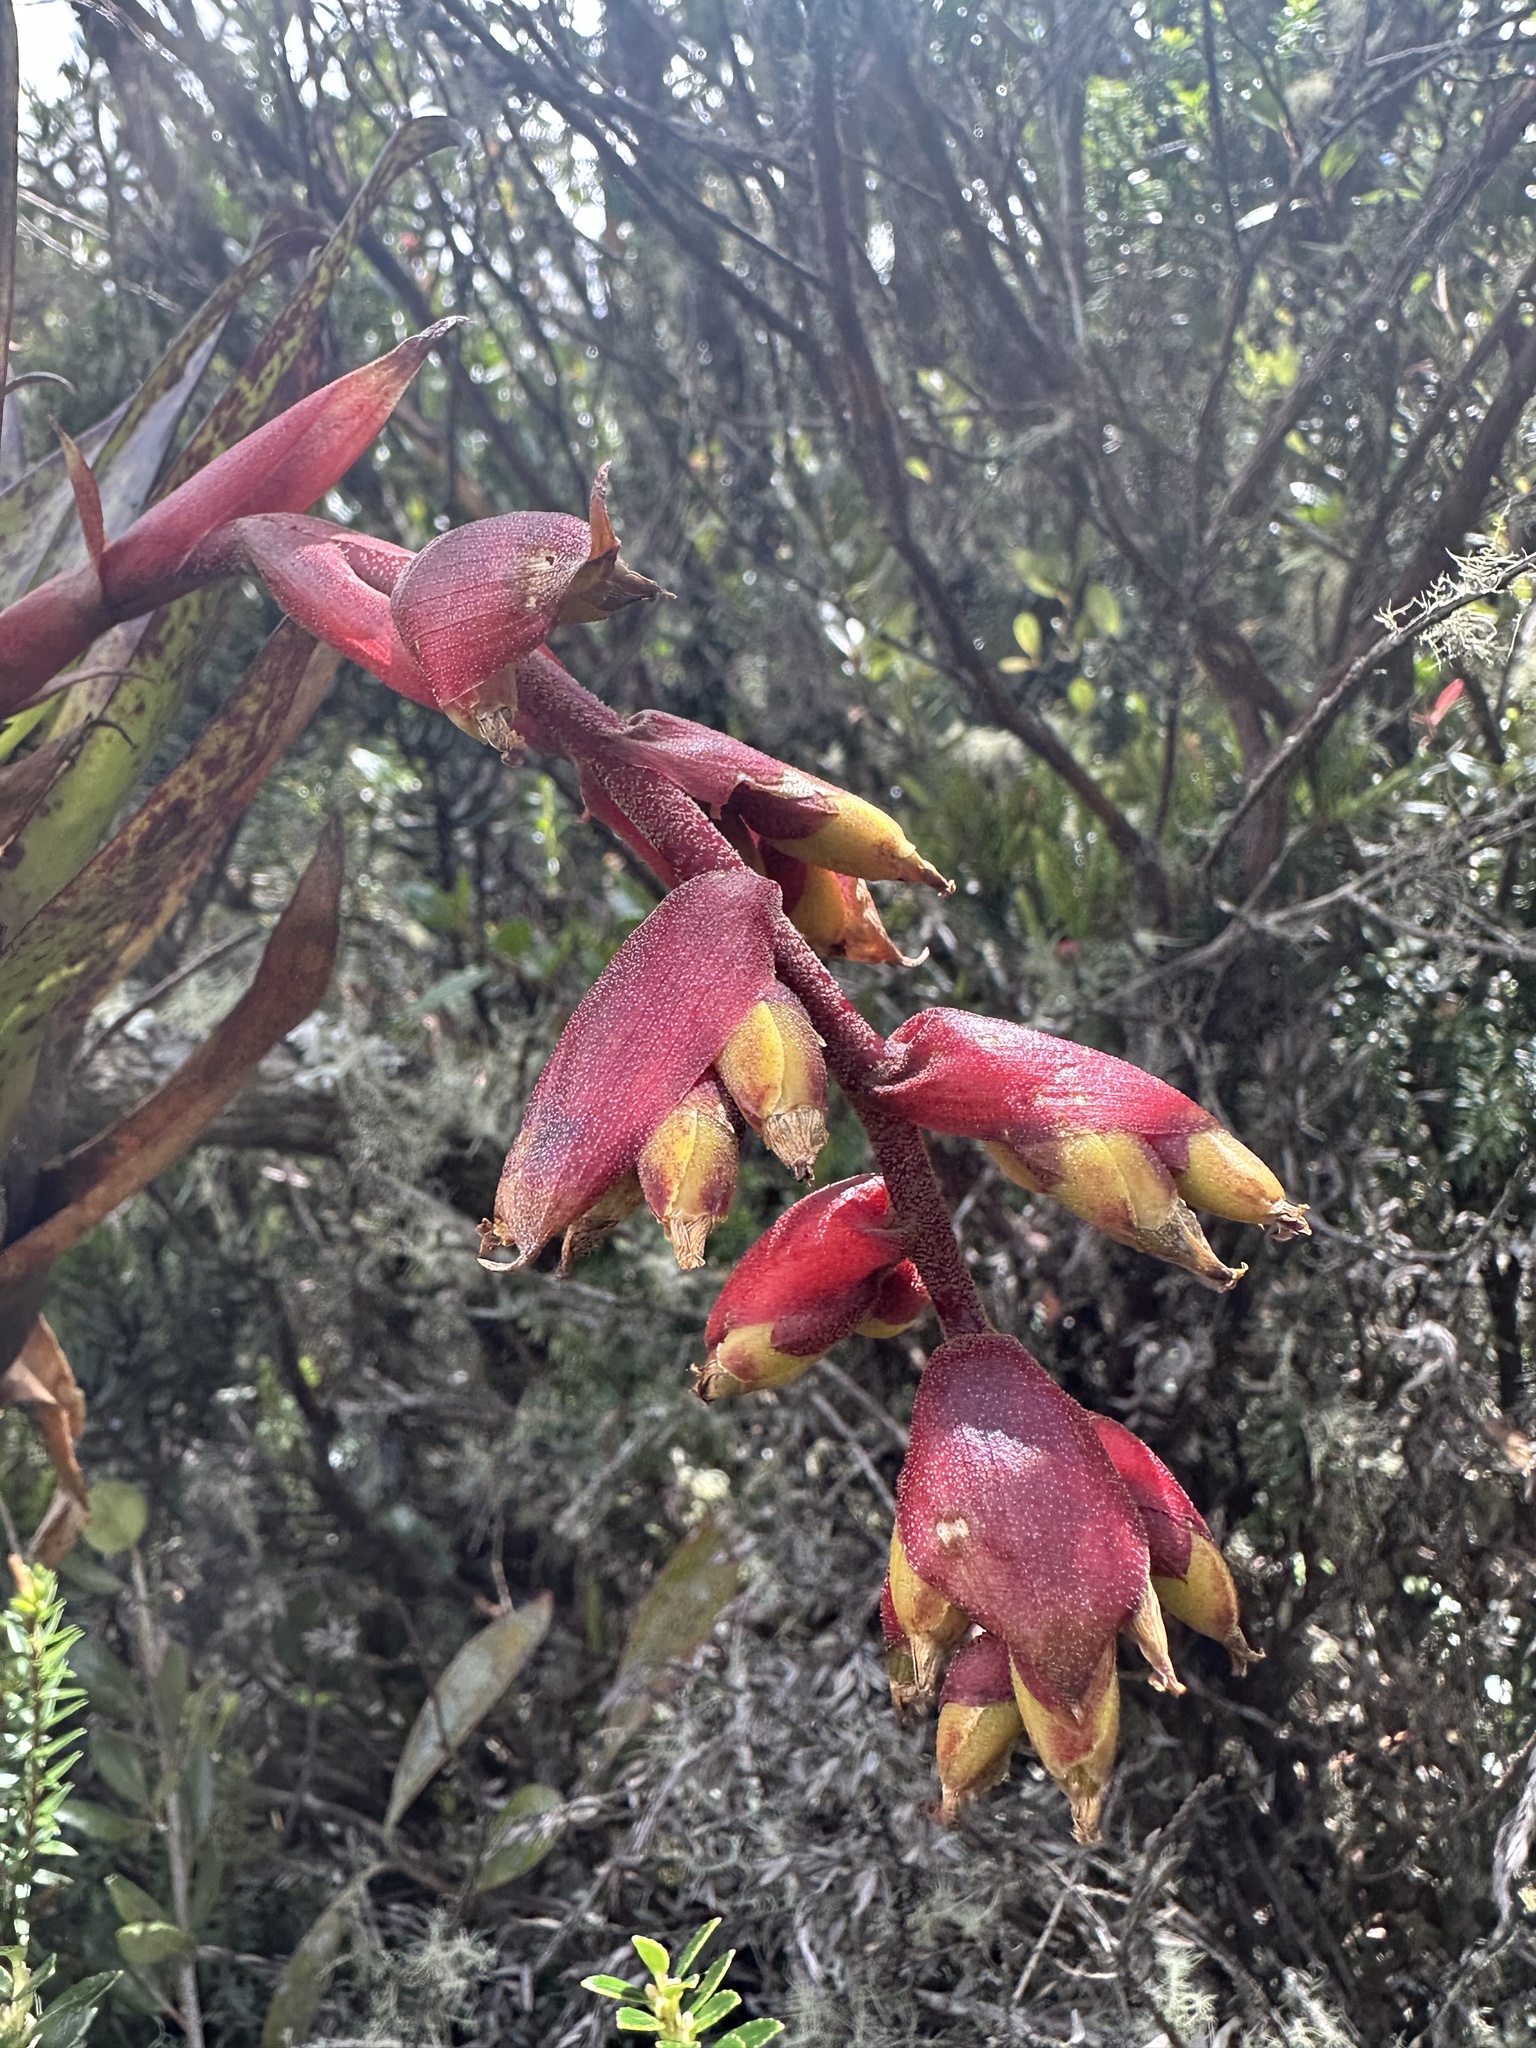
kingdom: Plantae
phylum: Tracheophyta
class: Liliopsida
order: Poales
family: Bromeliaceae
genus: Racinaea
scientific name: Racinaea tetrantha
